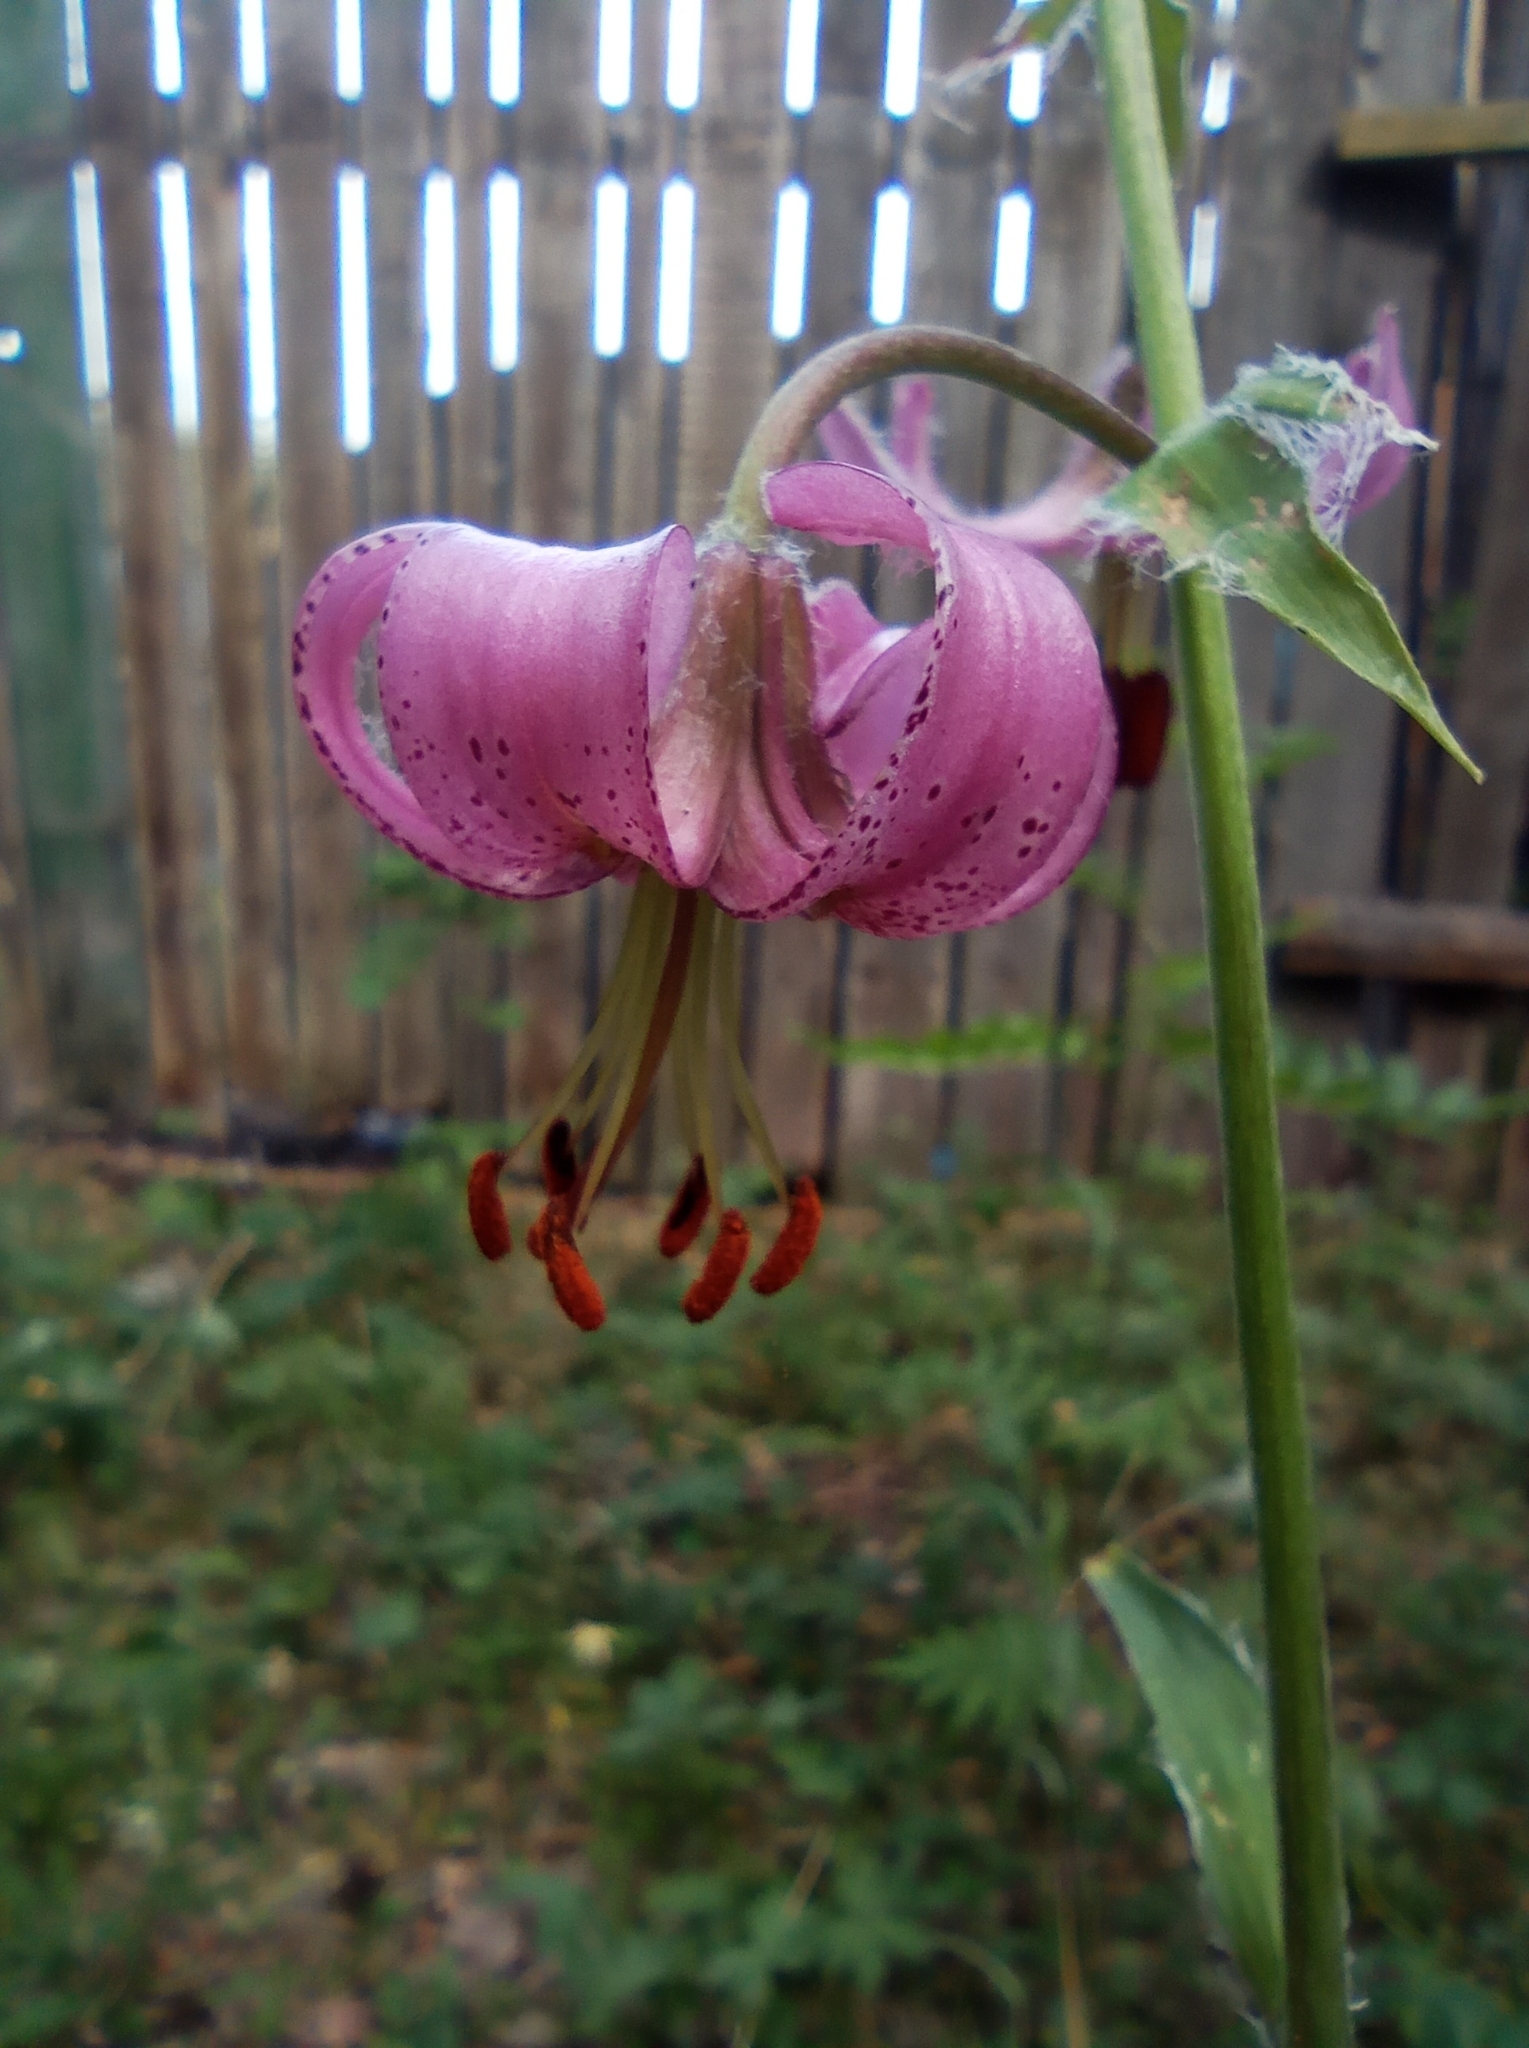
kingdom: Plantae
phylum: Tracheophyta
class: Liliopsida
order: Liliales
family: Liliaceae
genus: Lilium
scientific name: Lilium martagon
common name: Martagon lily
